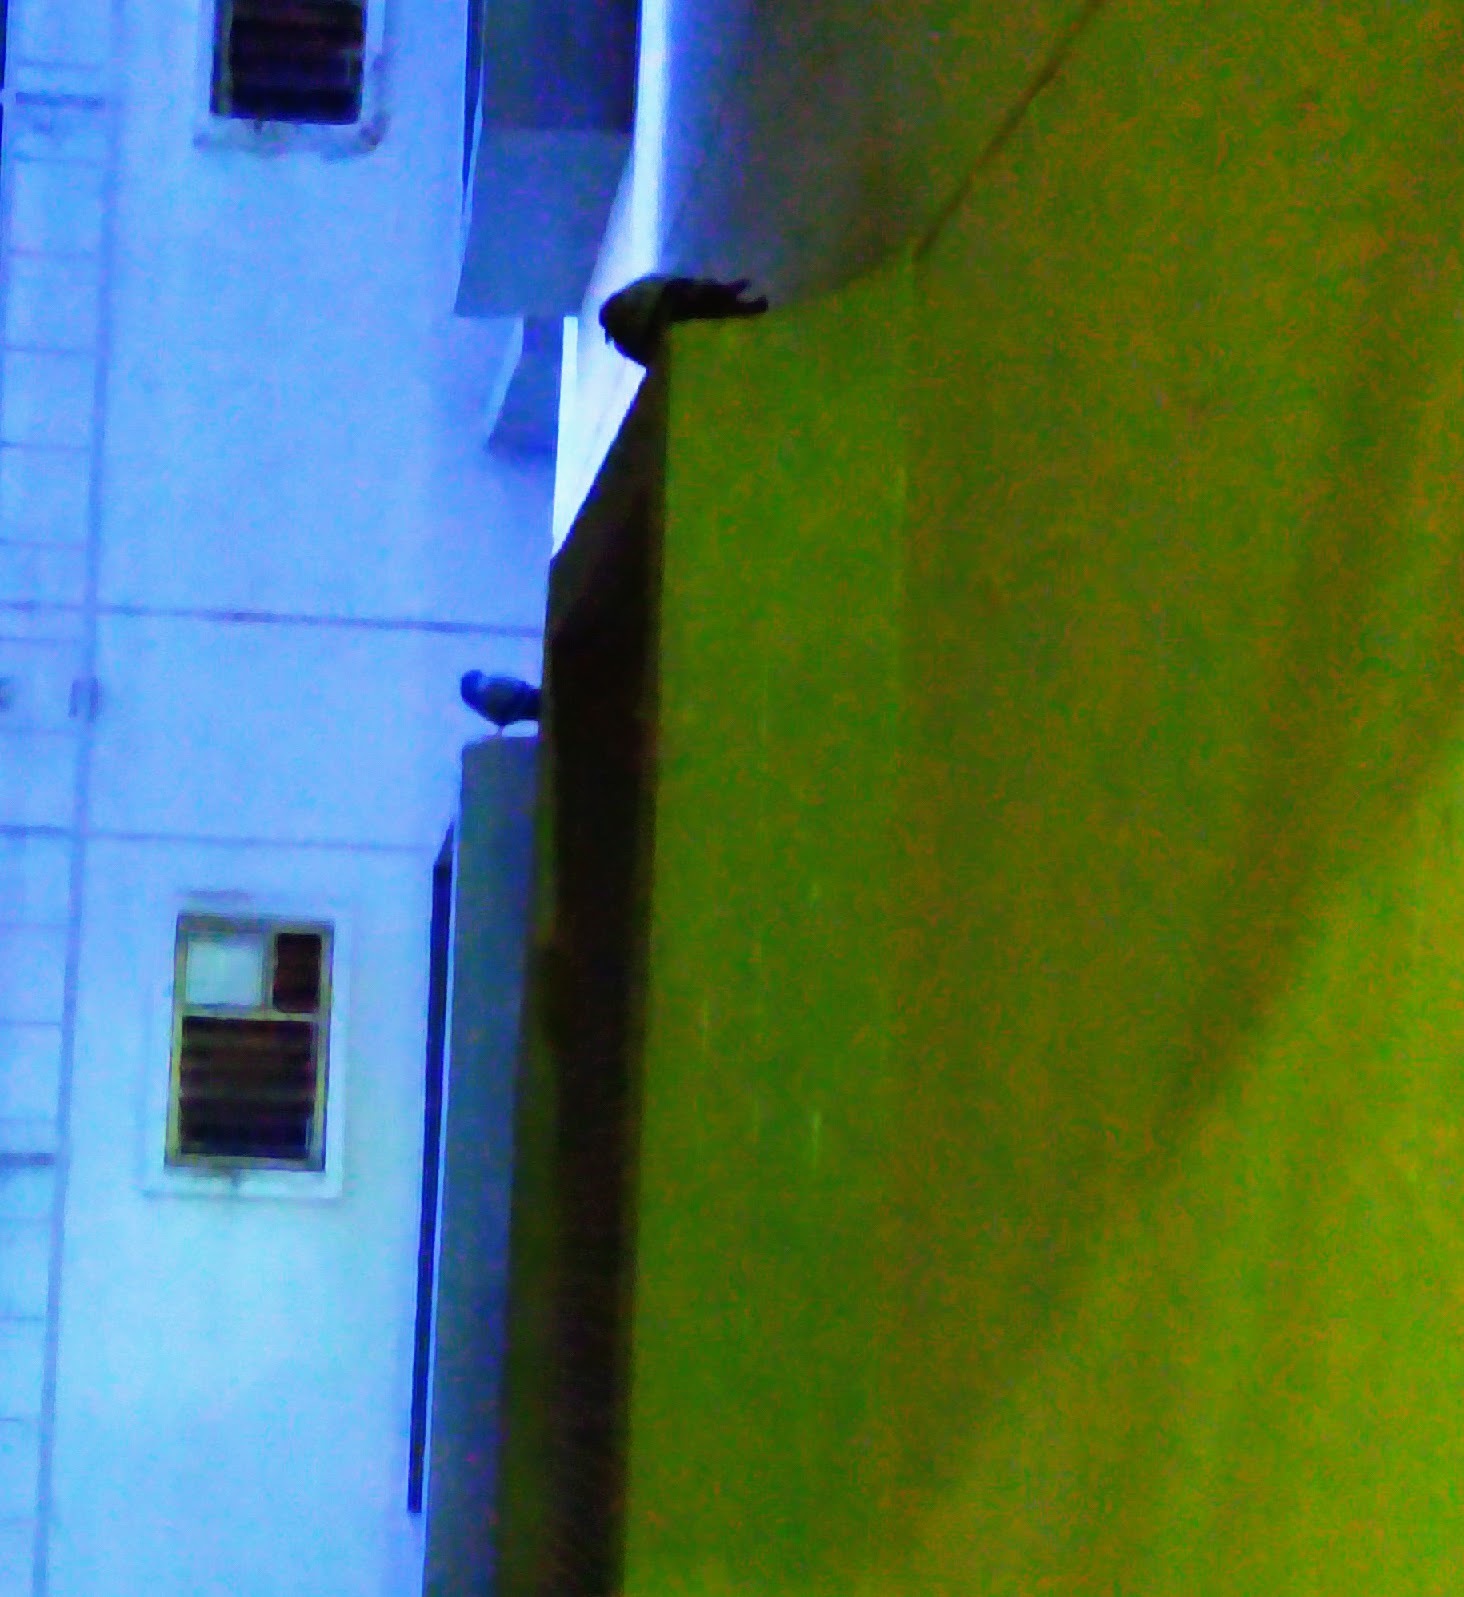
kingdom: Animalia
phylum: Chordata
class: Aves
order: Columbiformes
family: Columbidae
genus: Columba
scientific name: Columba livia
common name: Rock pigeon
